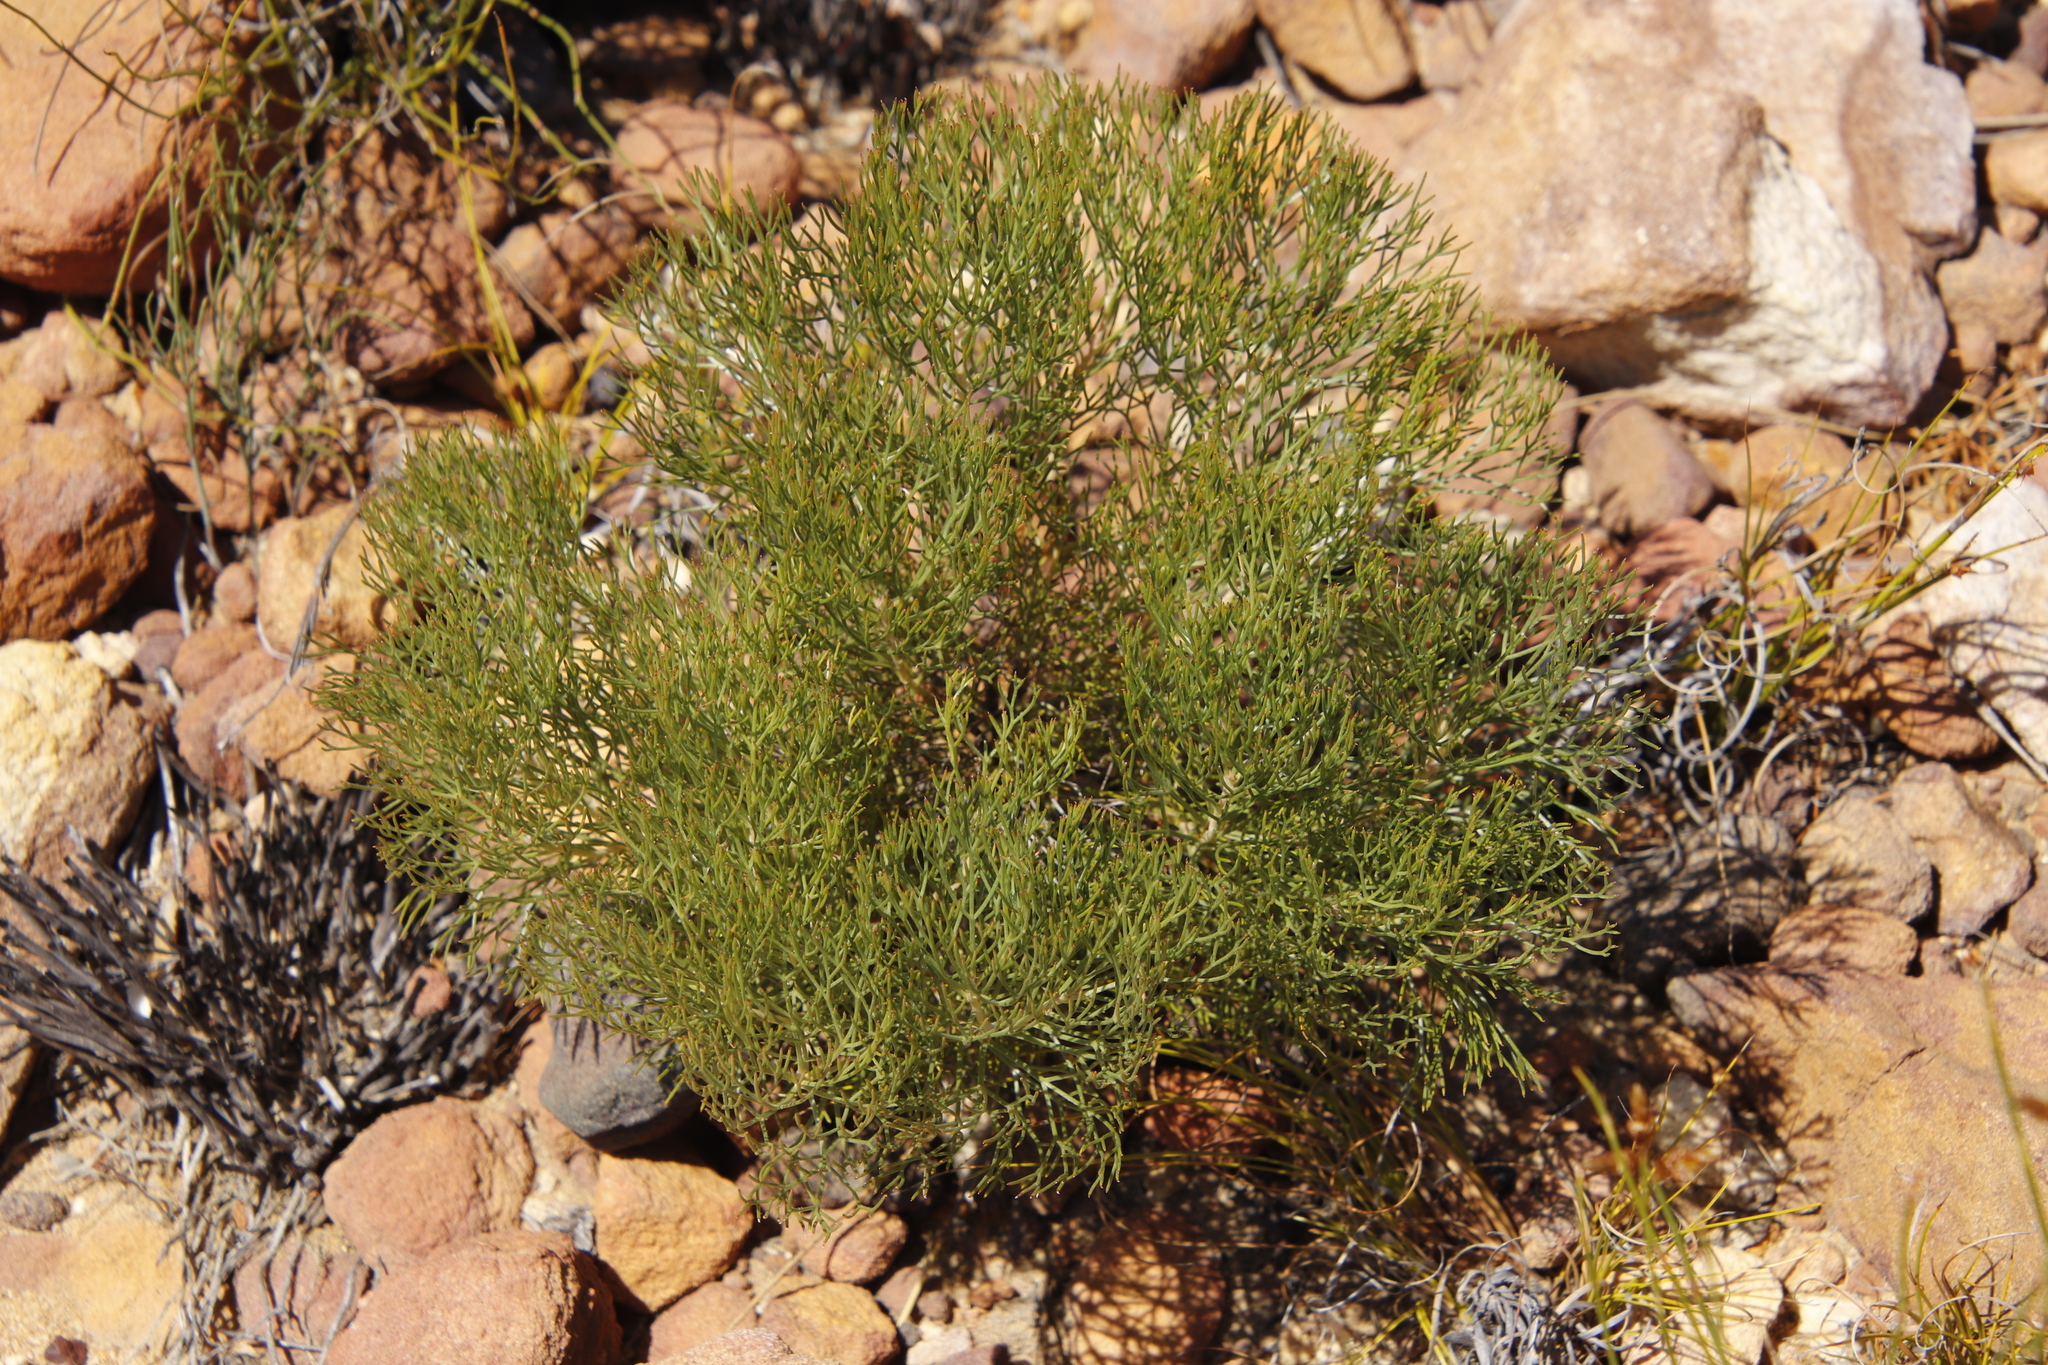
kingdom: Plantae
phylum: Tracheophyta
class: Magnoliopsida
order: Proteales
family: Proteaceae
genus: Serruria
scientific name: Serruria fasciflora
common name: Common pin spiderhead
